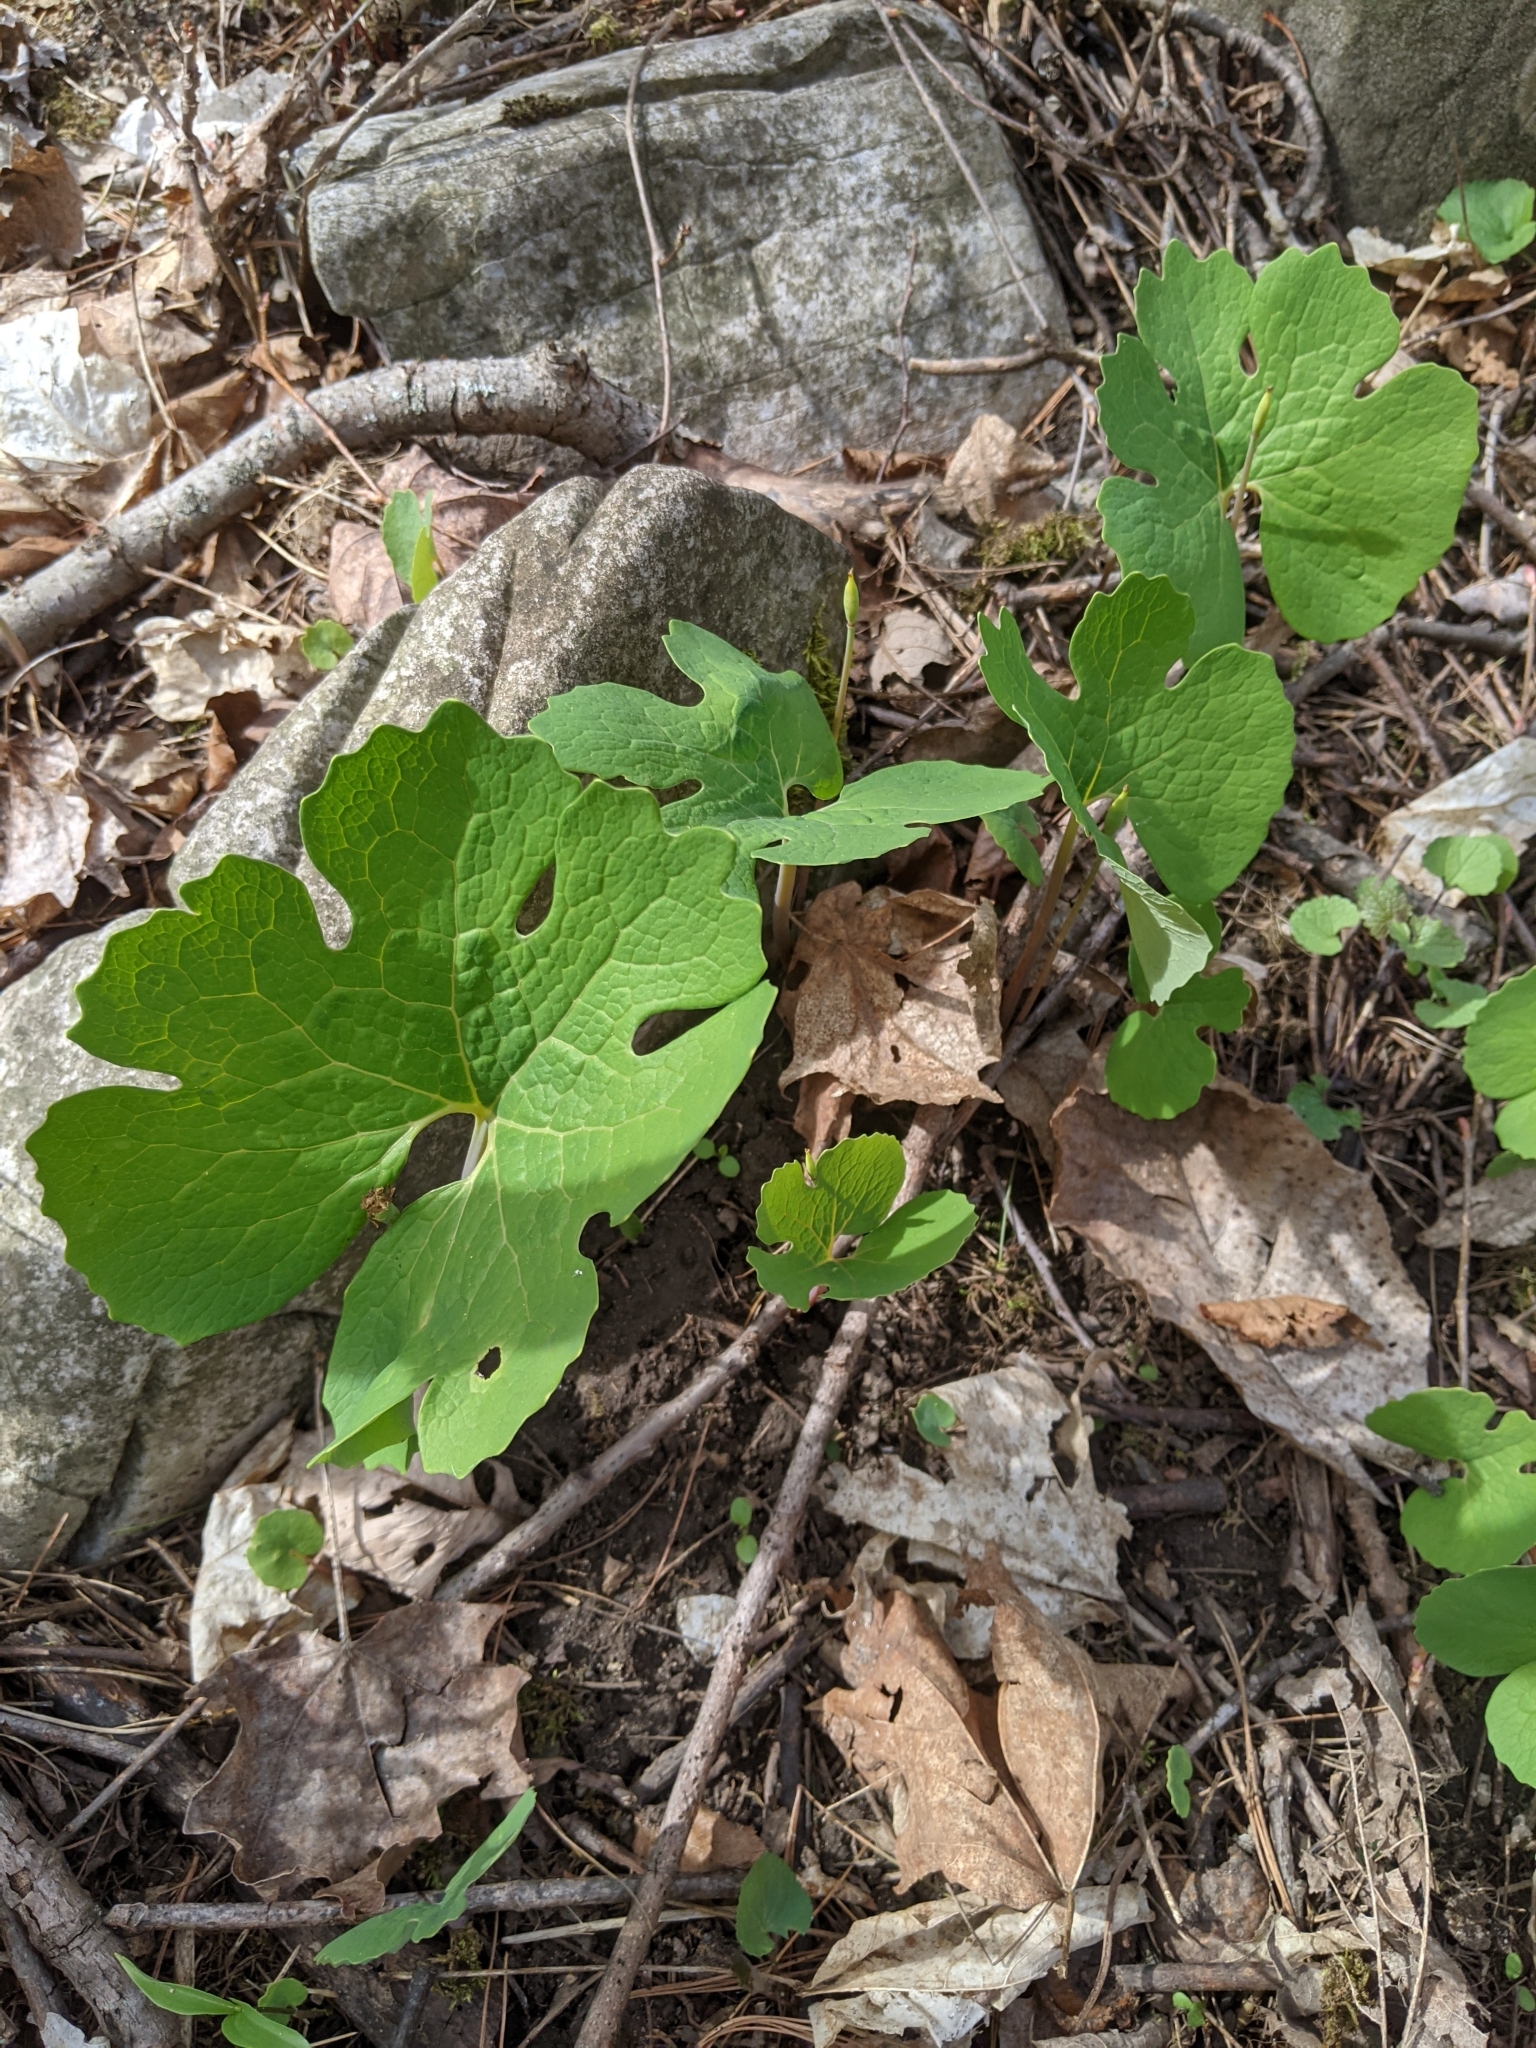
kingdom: Plantae
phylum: Tracheophyta
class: Magnoliopsida
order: Ranunculales
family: Papaveraceae
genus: Sanguinaria
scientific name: Sanguinaria canadensis
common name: Bloodroot
